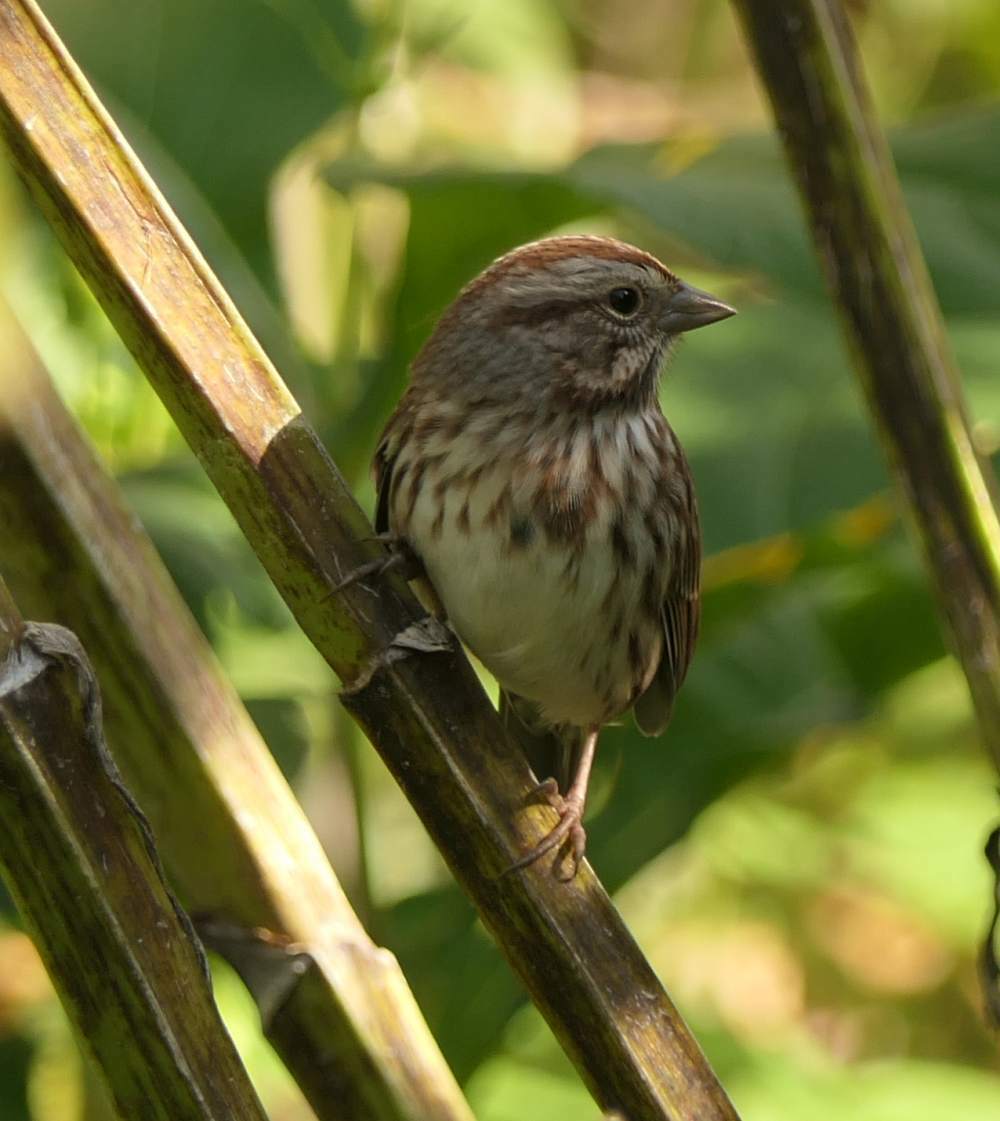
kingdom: Animalia
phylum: Chordata
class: Aves
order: Passeriformes
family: Passerellidae
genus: Melospiza
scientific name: Melospiza melodia
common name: Song sparrow
